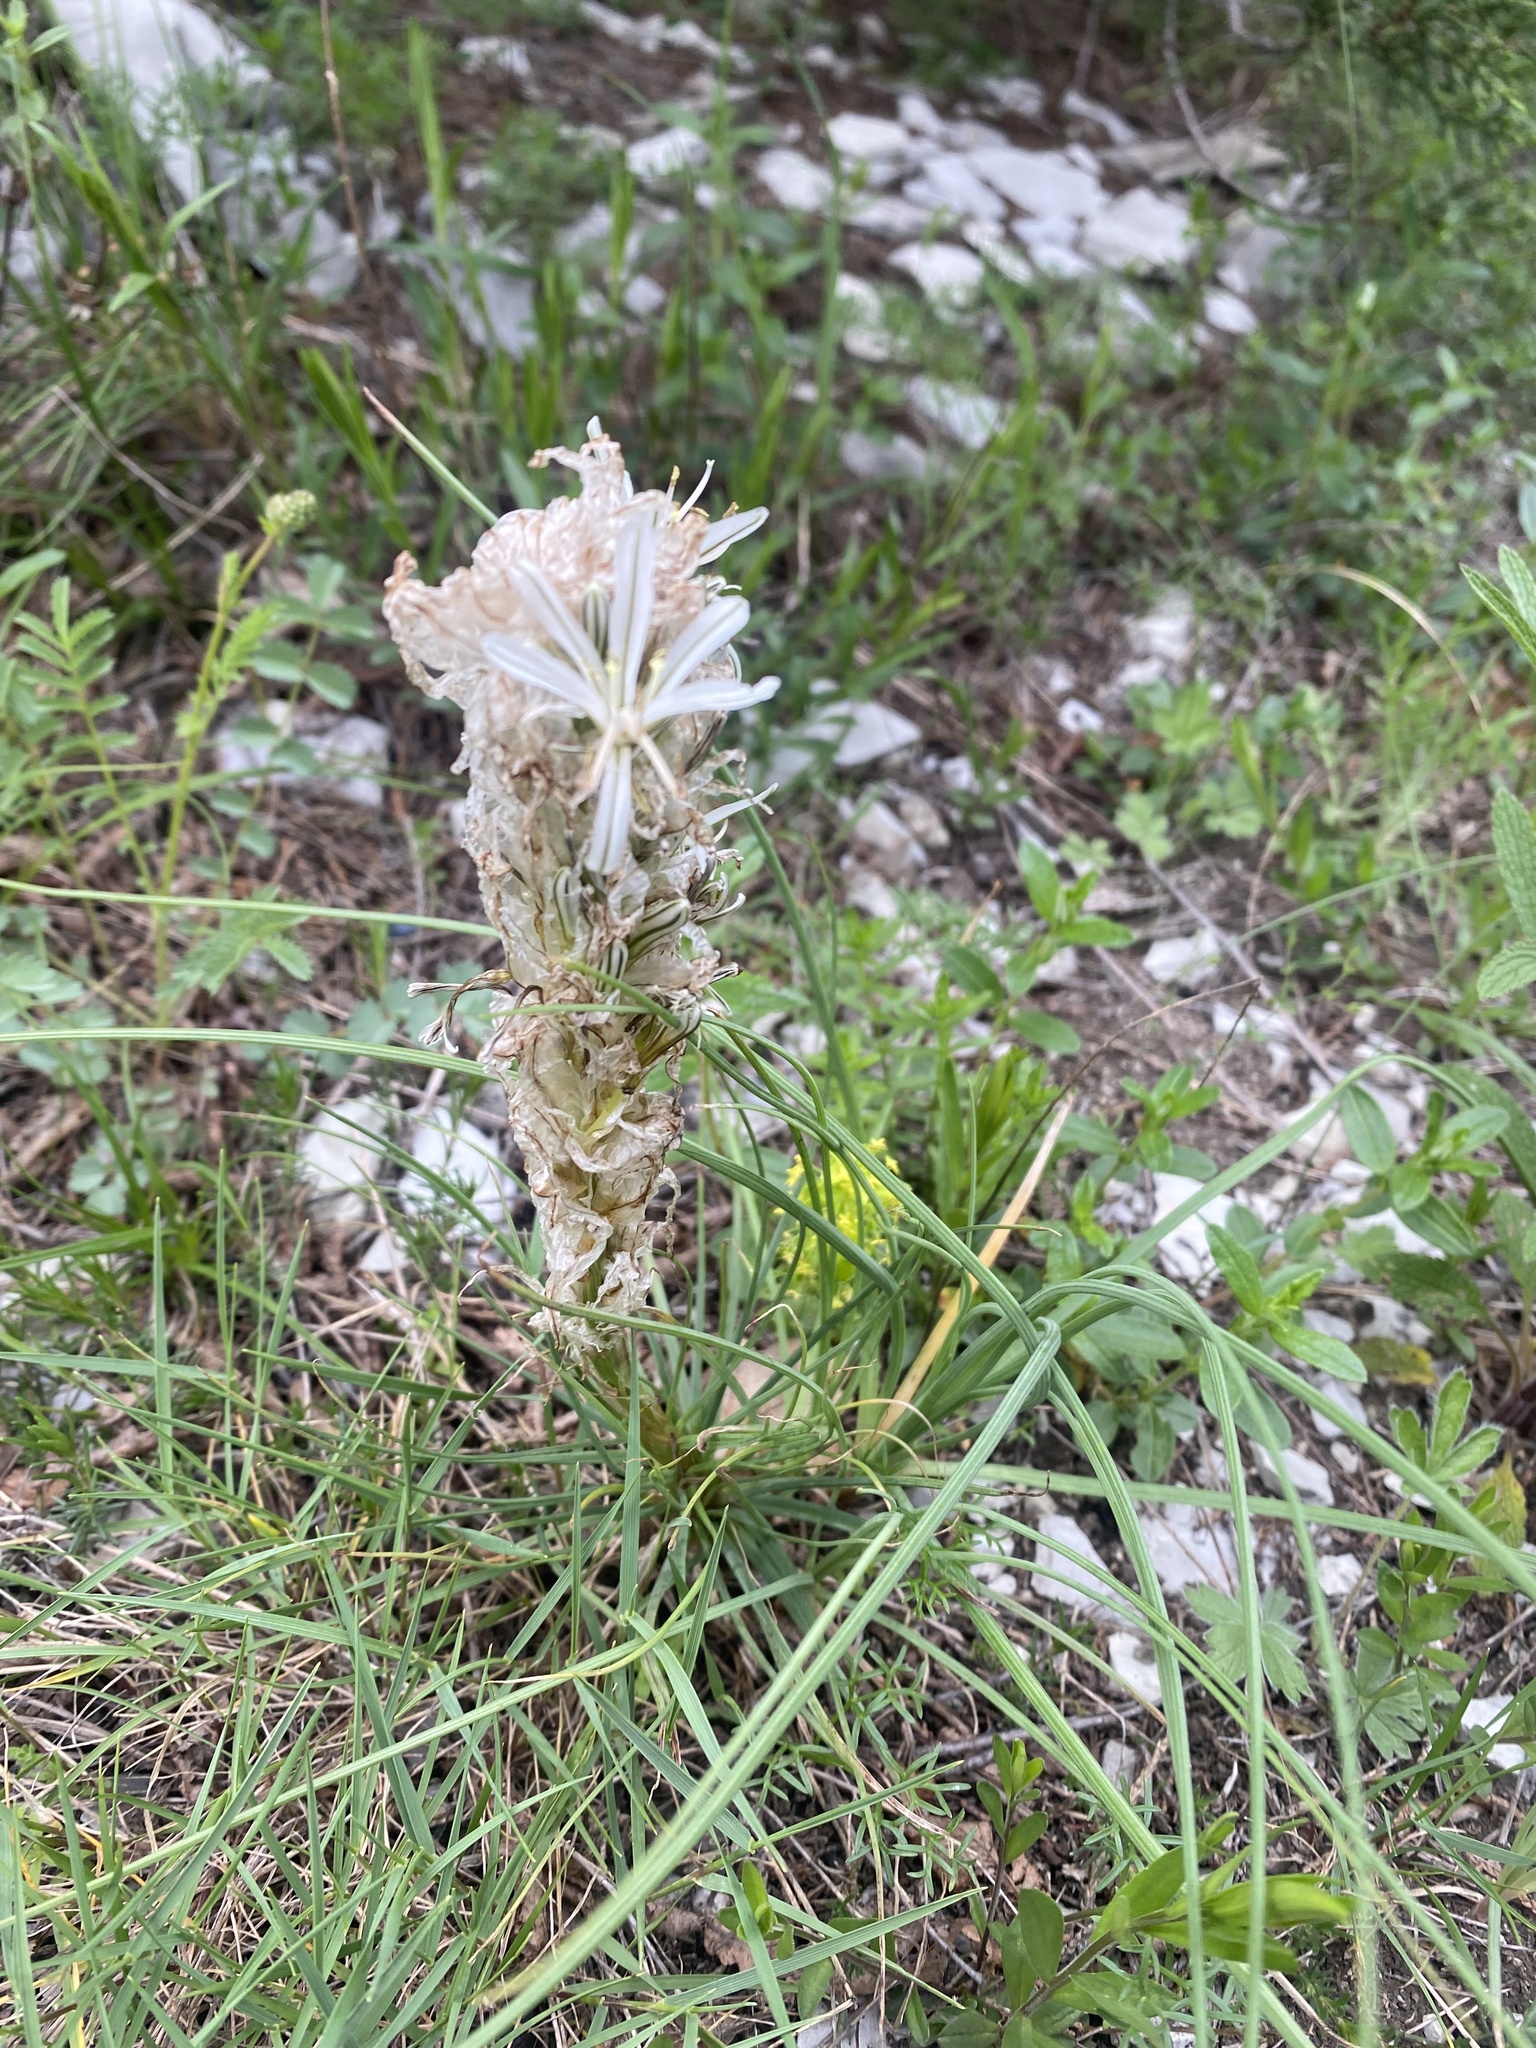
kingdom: Plantae
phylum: Tracheophyta
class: Liliopsida
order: Asparagales
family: Asphodelaceae
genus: Asphodeline
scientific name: Asphodeline taurica
